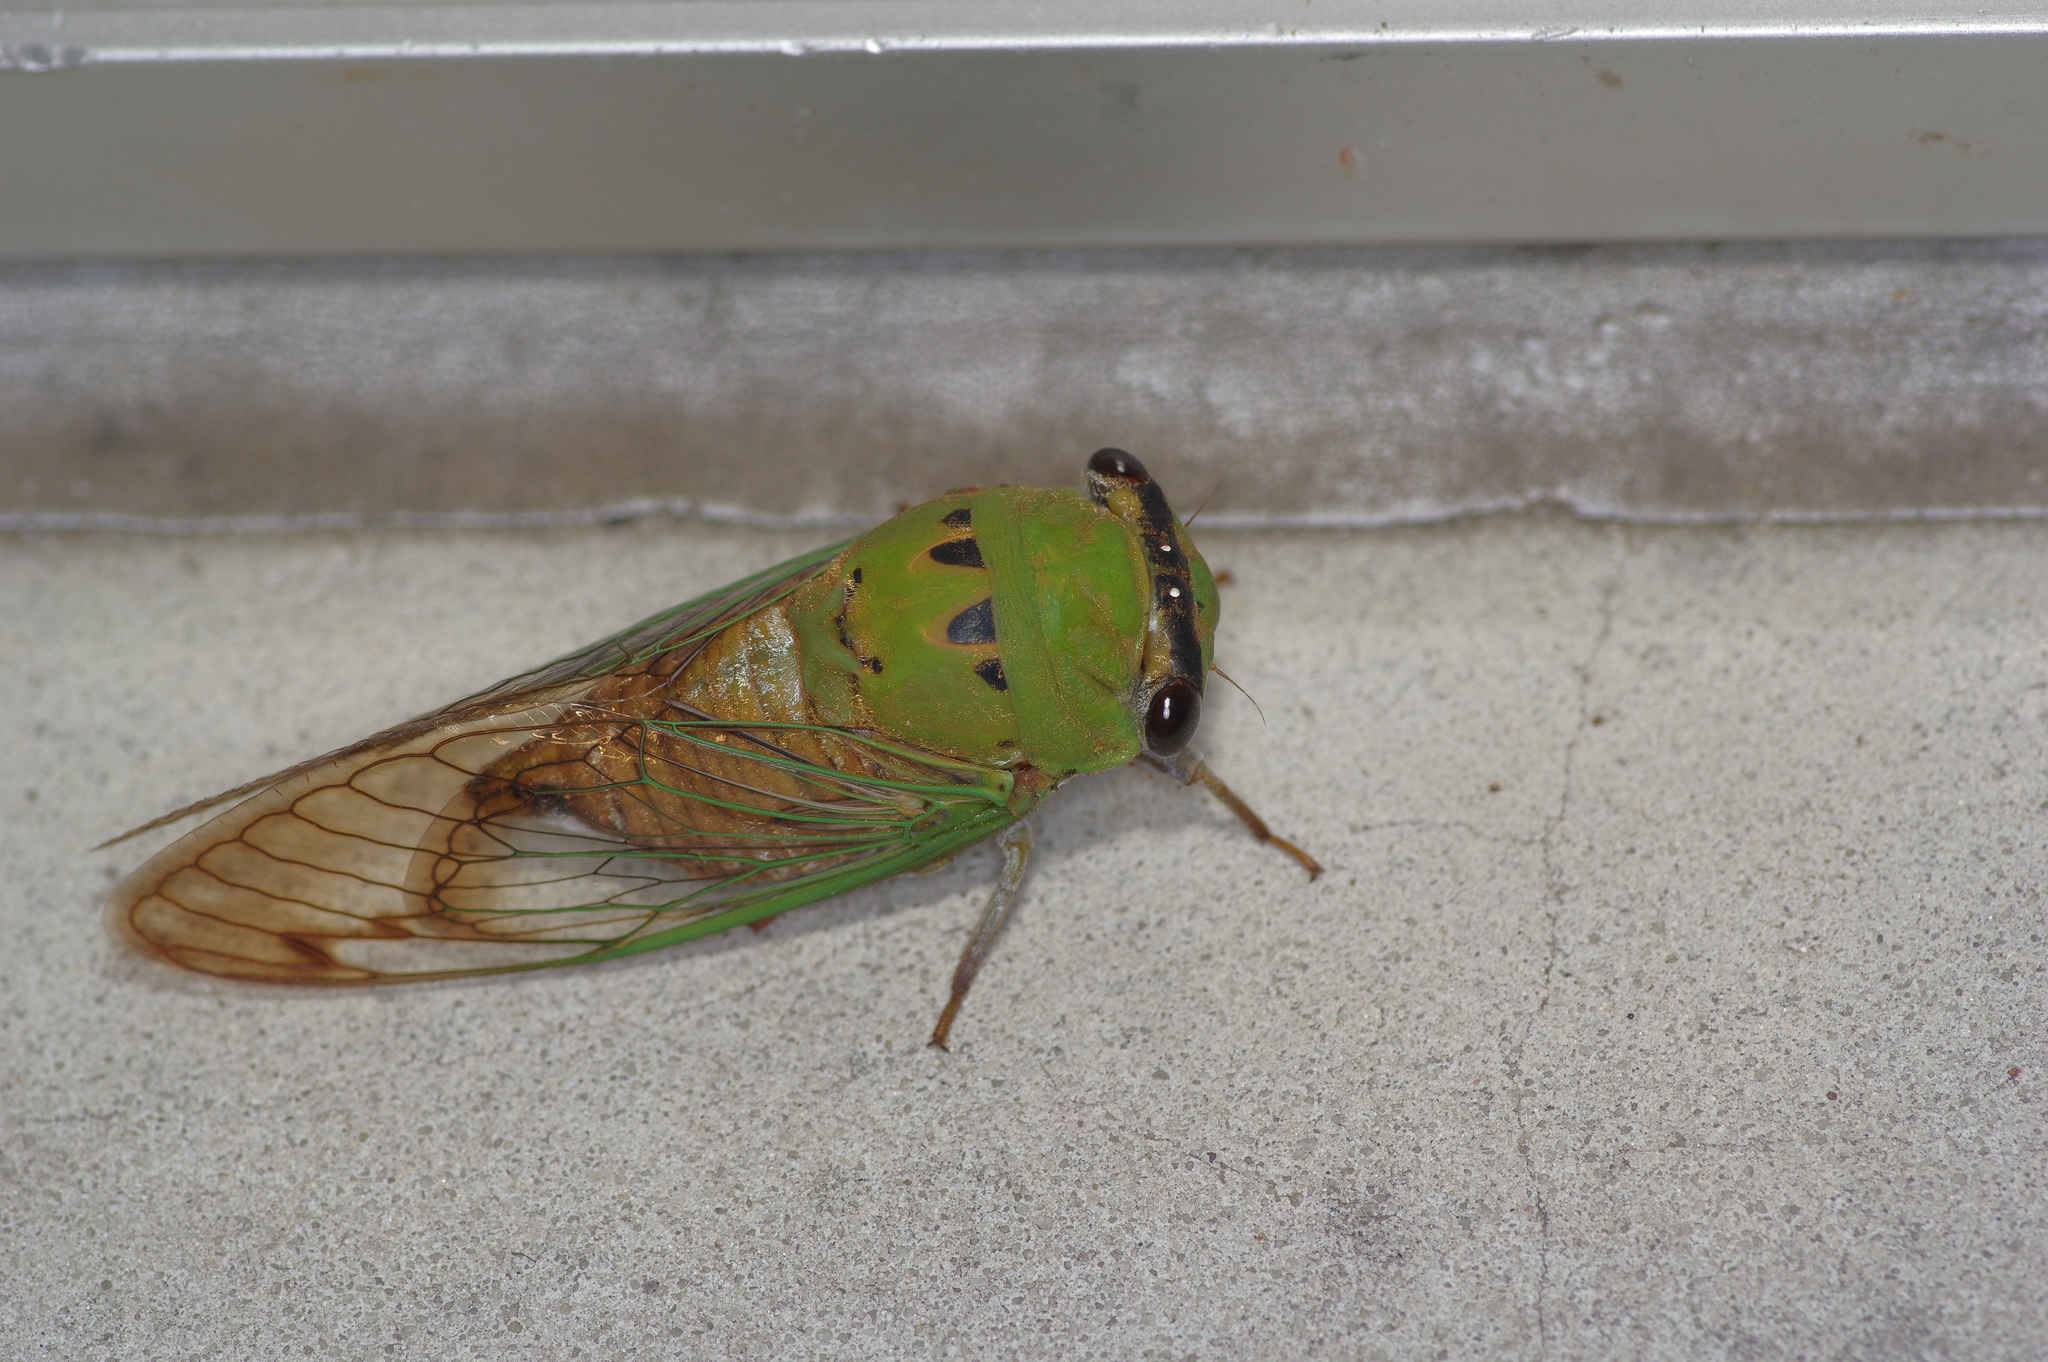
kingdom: Animalia
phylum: Arthropoda
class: Insecta
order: Hemiptera
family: Cicadidae
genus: Neotibicen
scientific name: Neotibicen superbus
